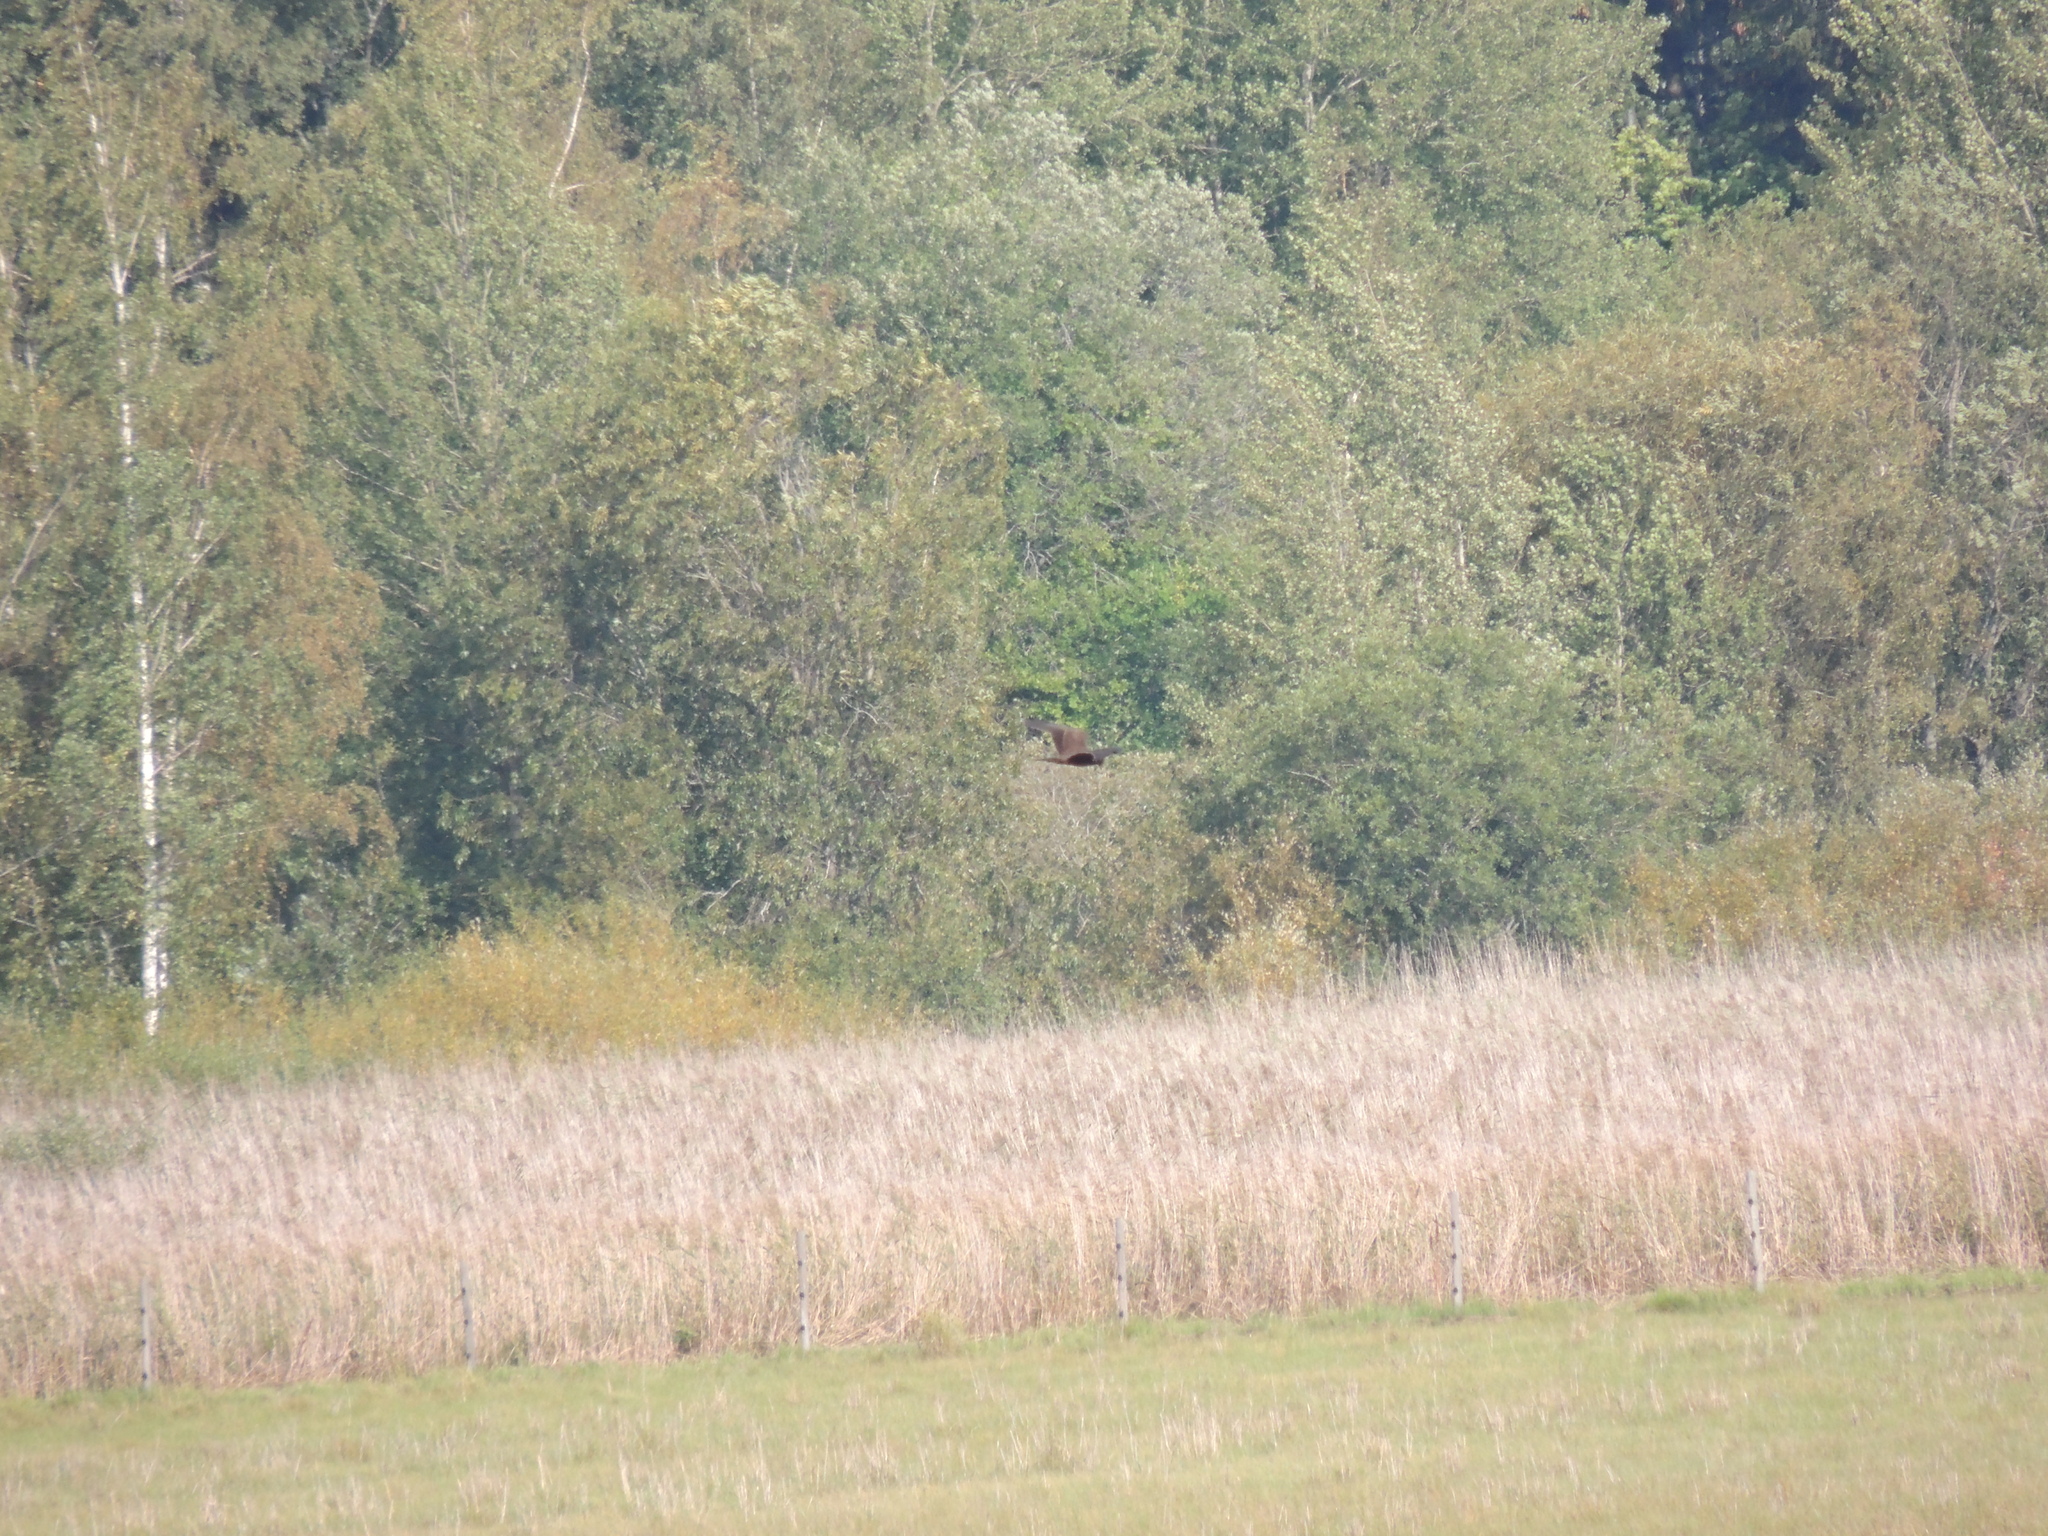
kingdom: Animalia
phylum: Chordata
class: Aves
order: Accipitriformes
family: Accipitridae
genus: Circus
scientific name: Circus aeruginosus
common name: Western marsh harrier
